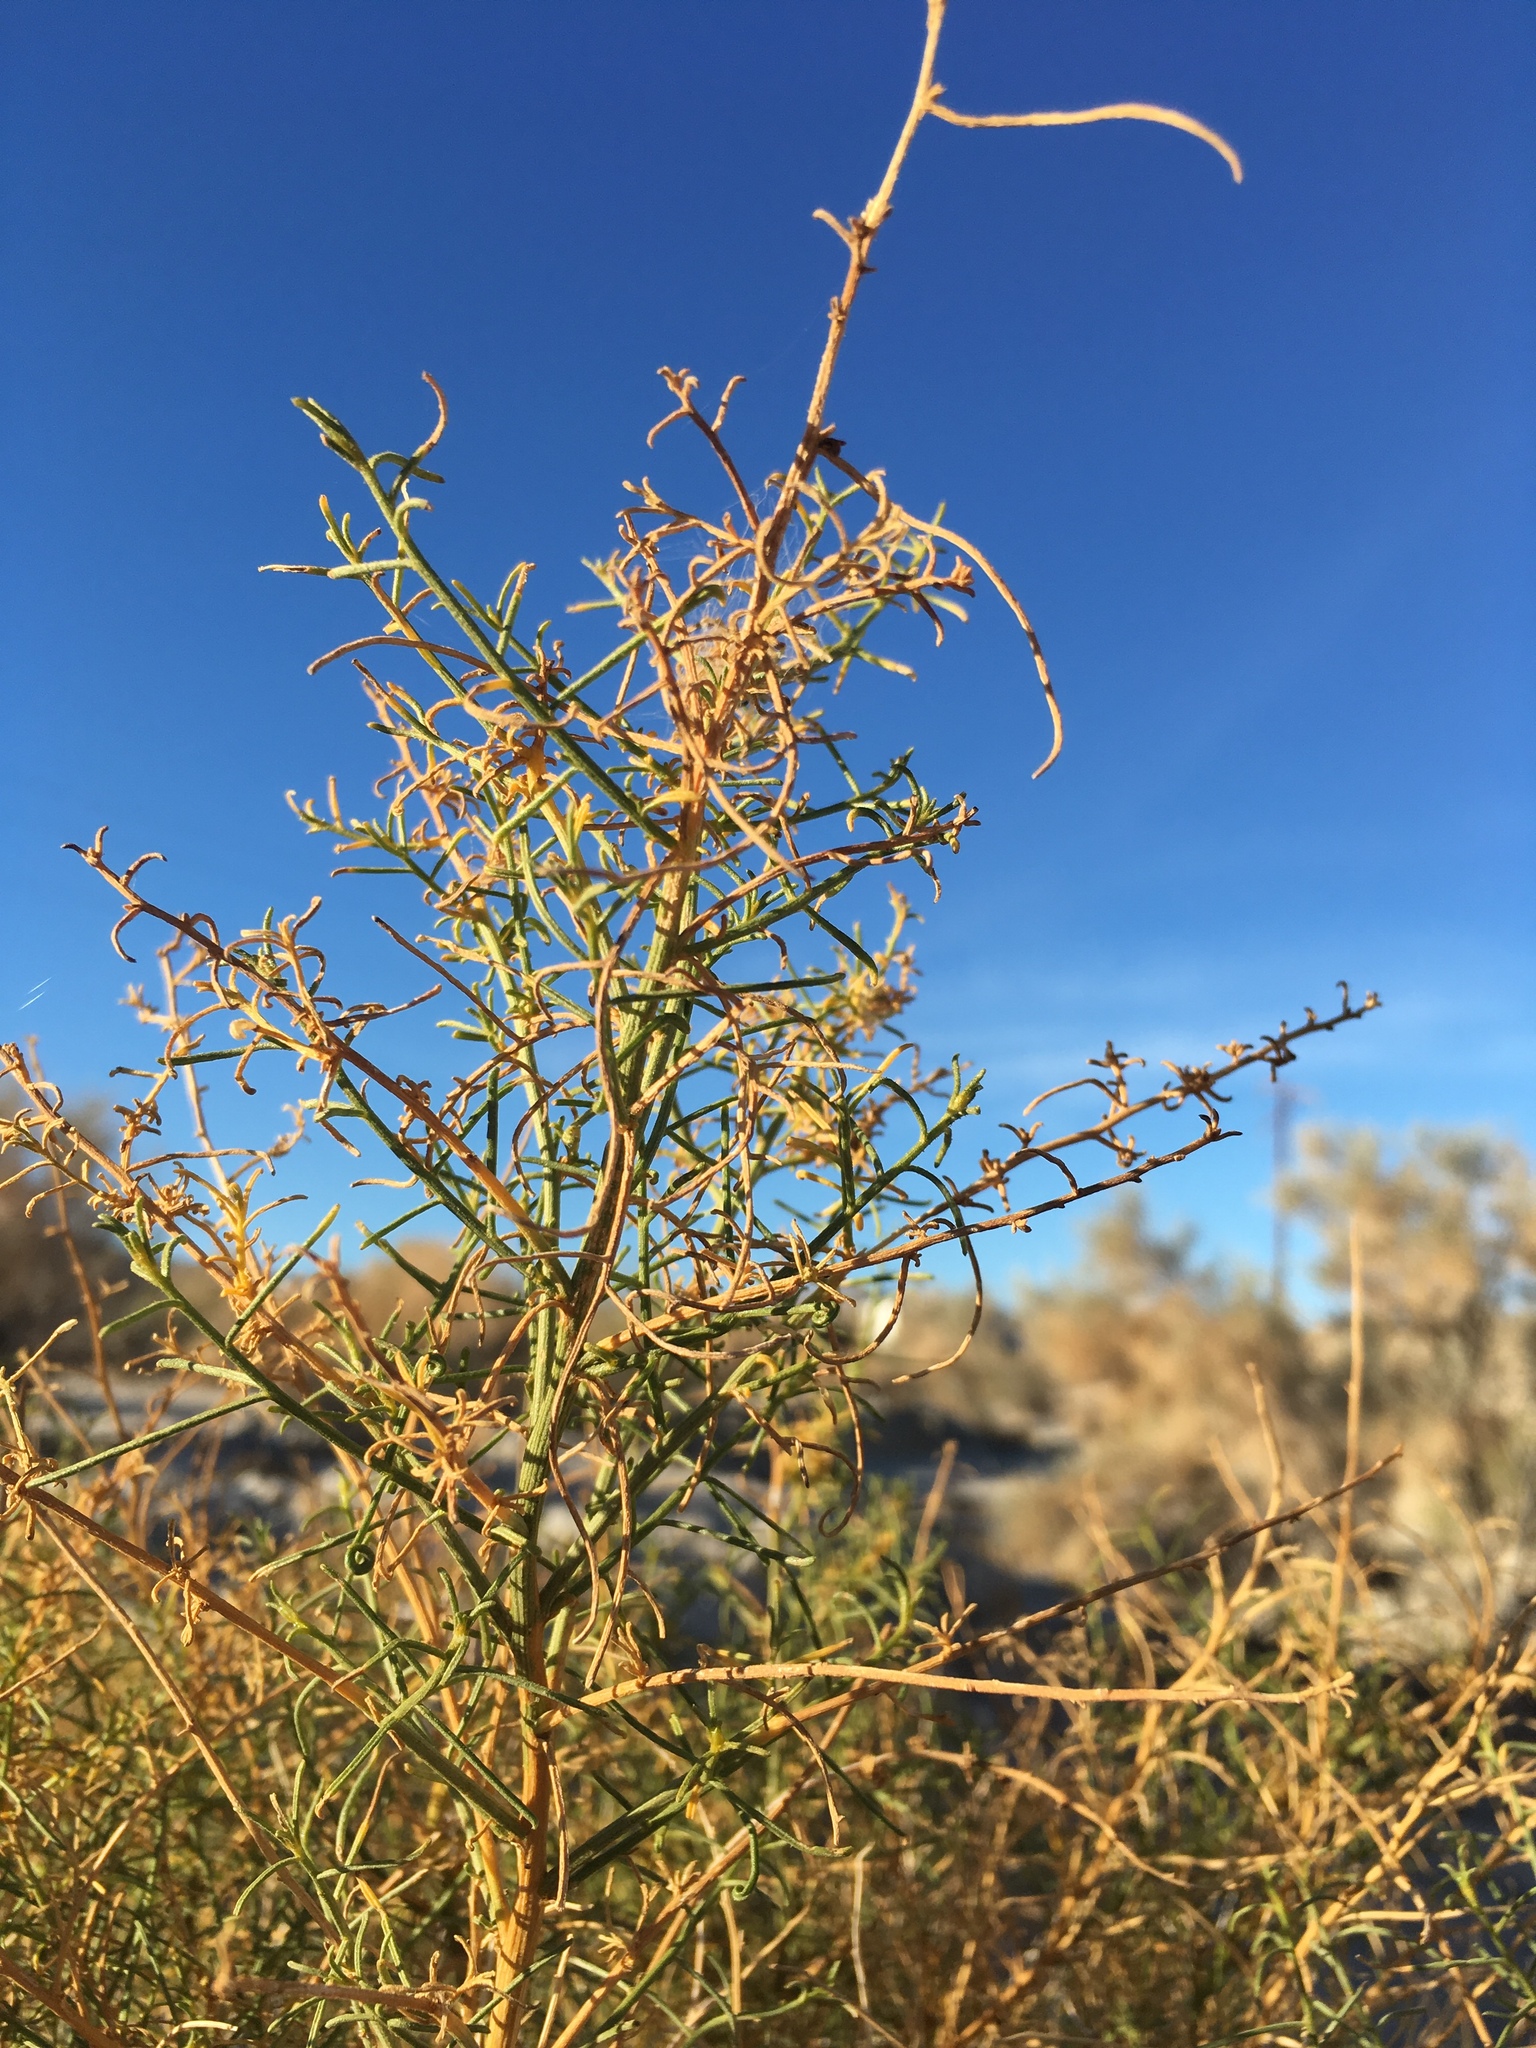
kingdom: Plantae
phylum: Tracheophyta
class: Magnoliopsida
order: Asterales
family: Asteraceae
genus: Ambrosia
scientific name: Ambrosia salsola
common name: Burrobrush
